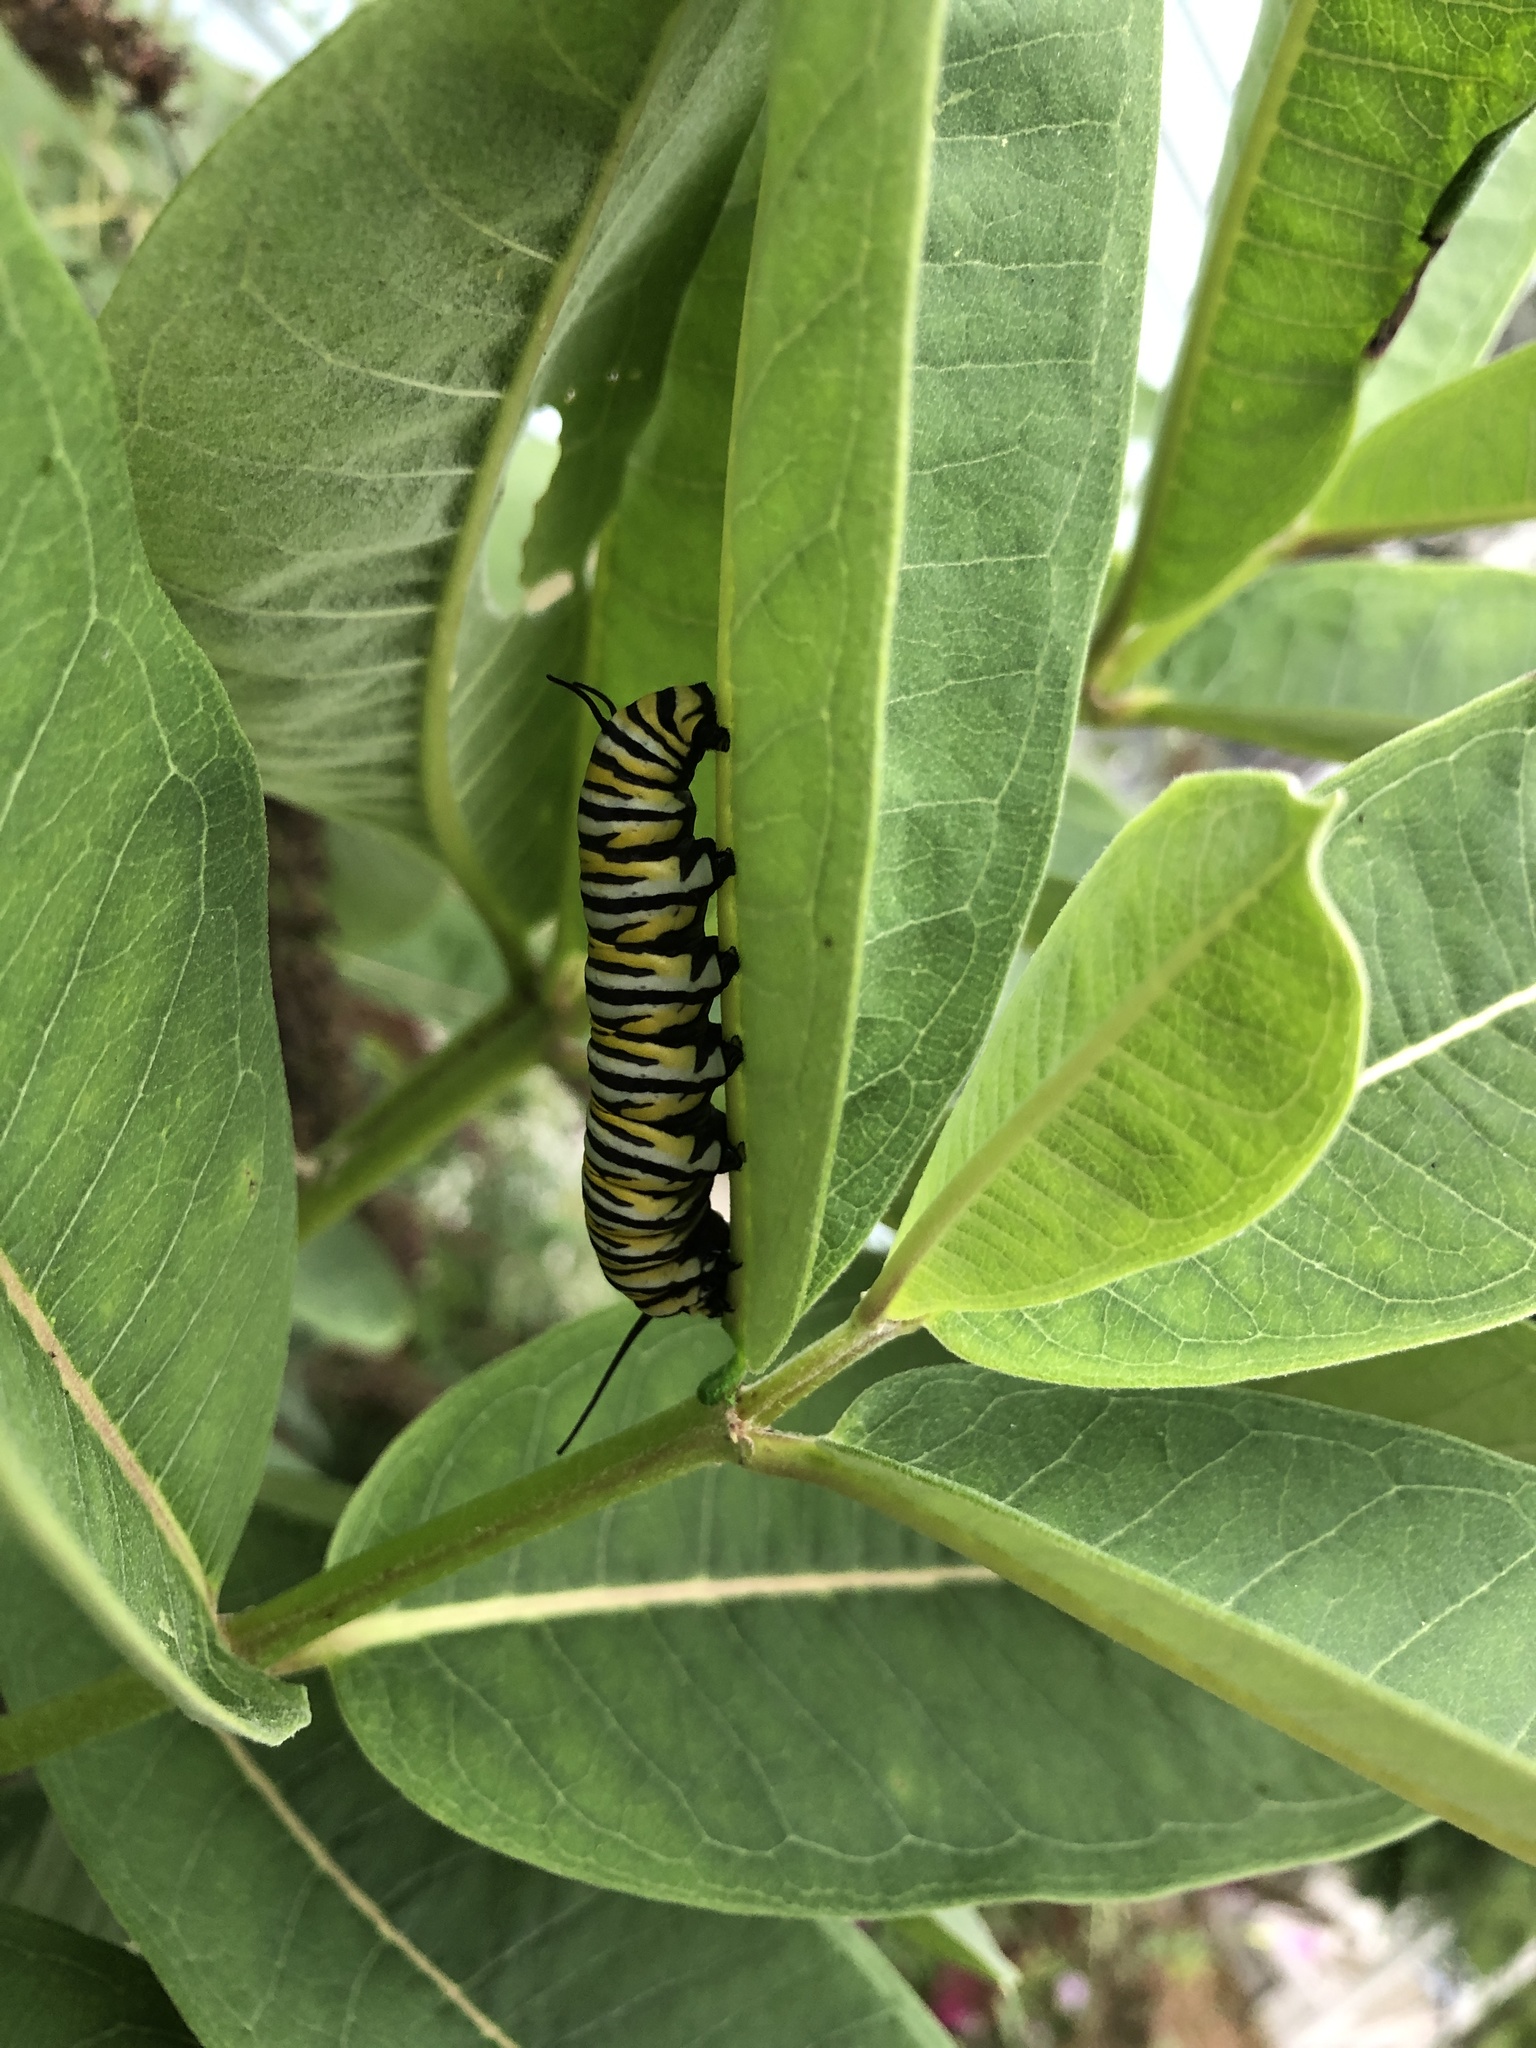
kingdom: Animalia
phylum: Arthropoda
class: Insecta
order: Lepidoptera
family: Nymphalidae
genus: Danaus
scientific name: Danaus plexippus
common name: Monarch
